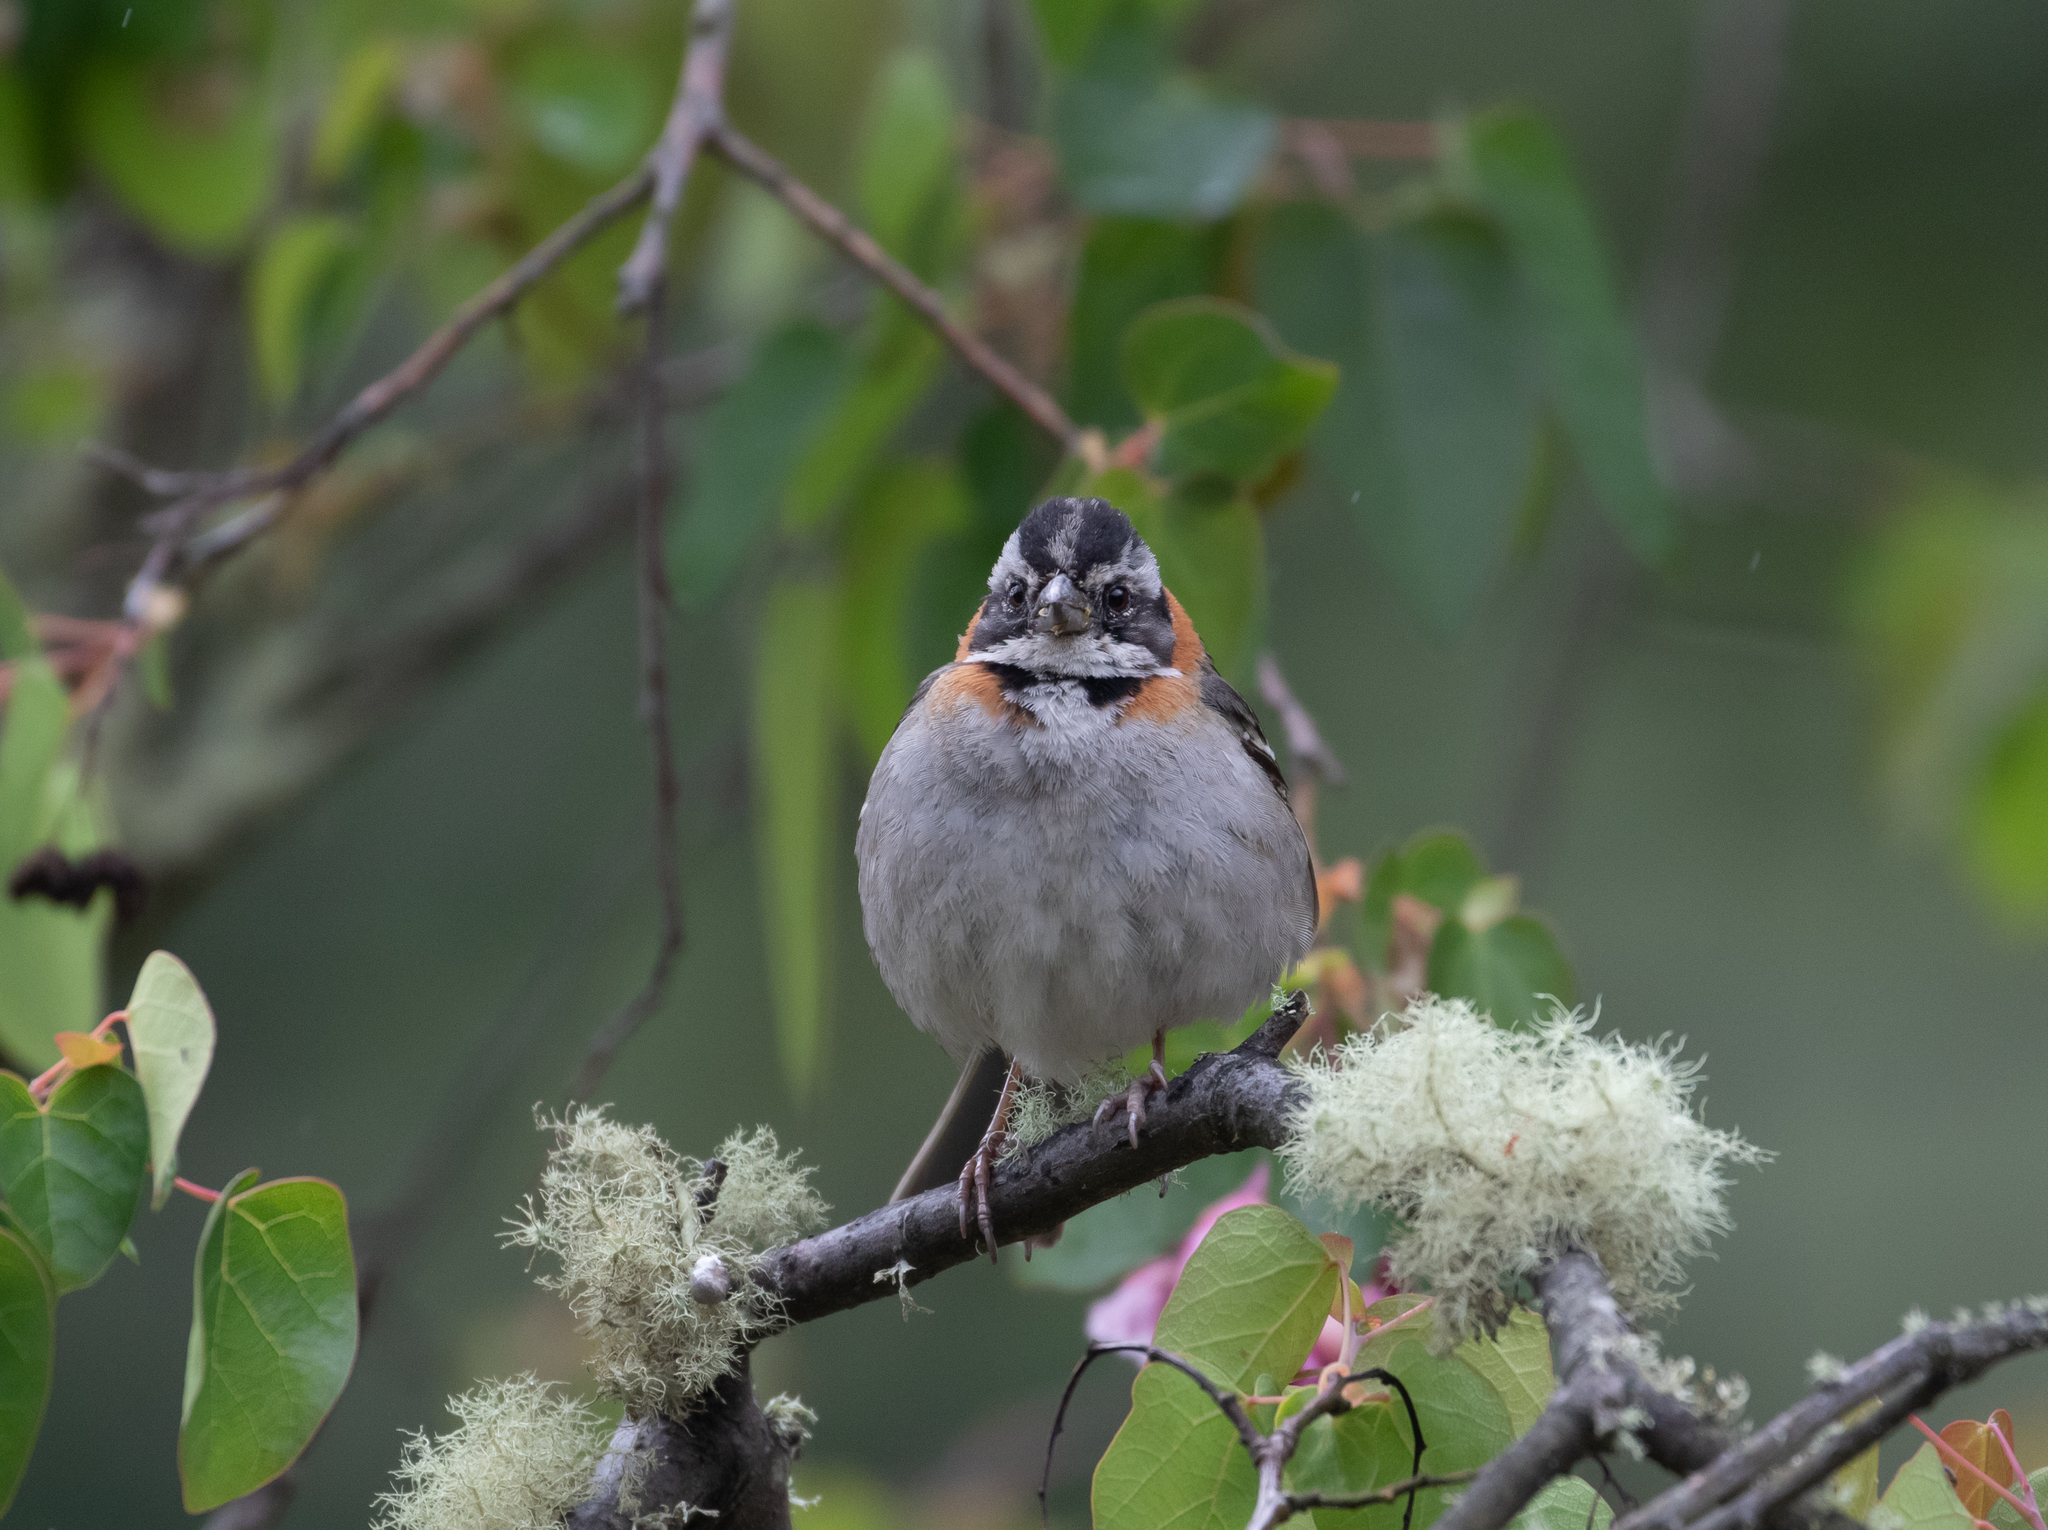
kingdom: Animalia
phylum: Chordata
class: Aves
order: Passeriformes
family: Passerellidae
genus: Zonotrichia
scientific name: Zonotrichia capensis
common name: Rufous-collared sparrow
